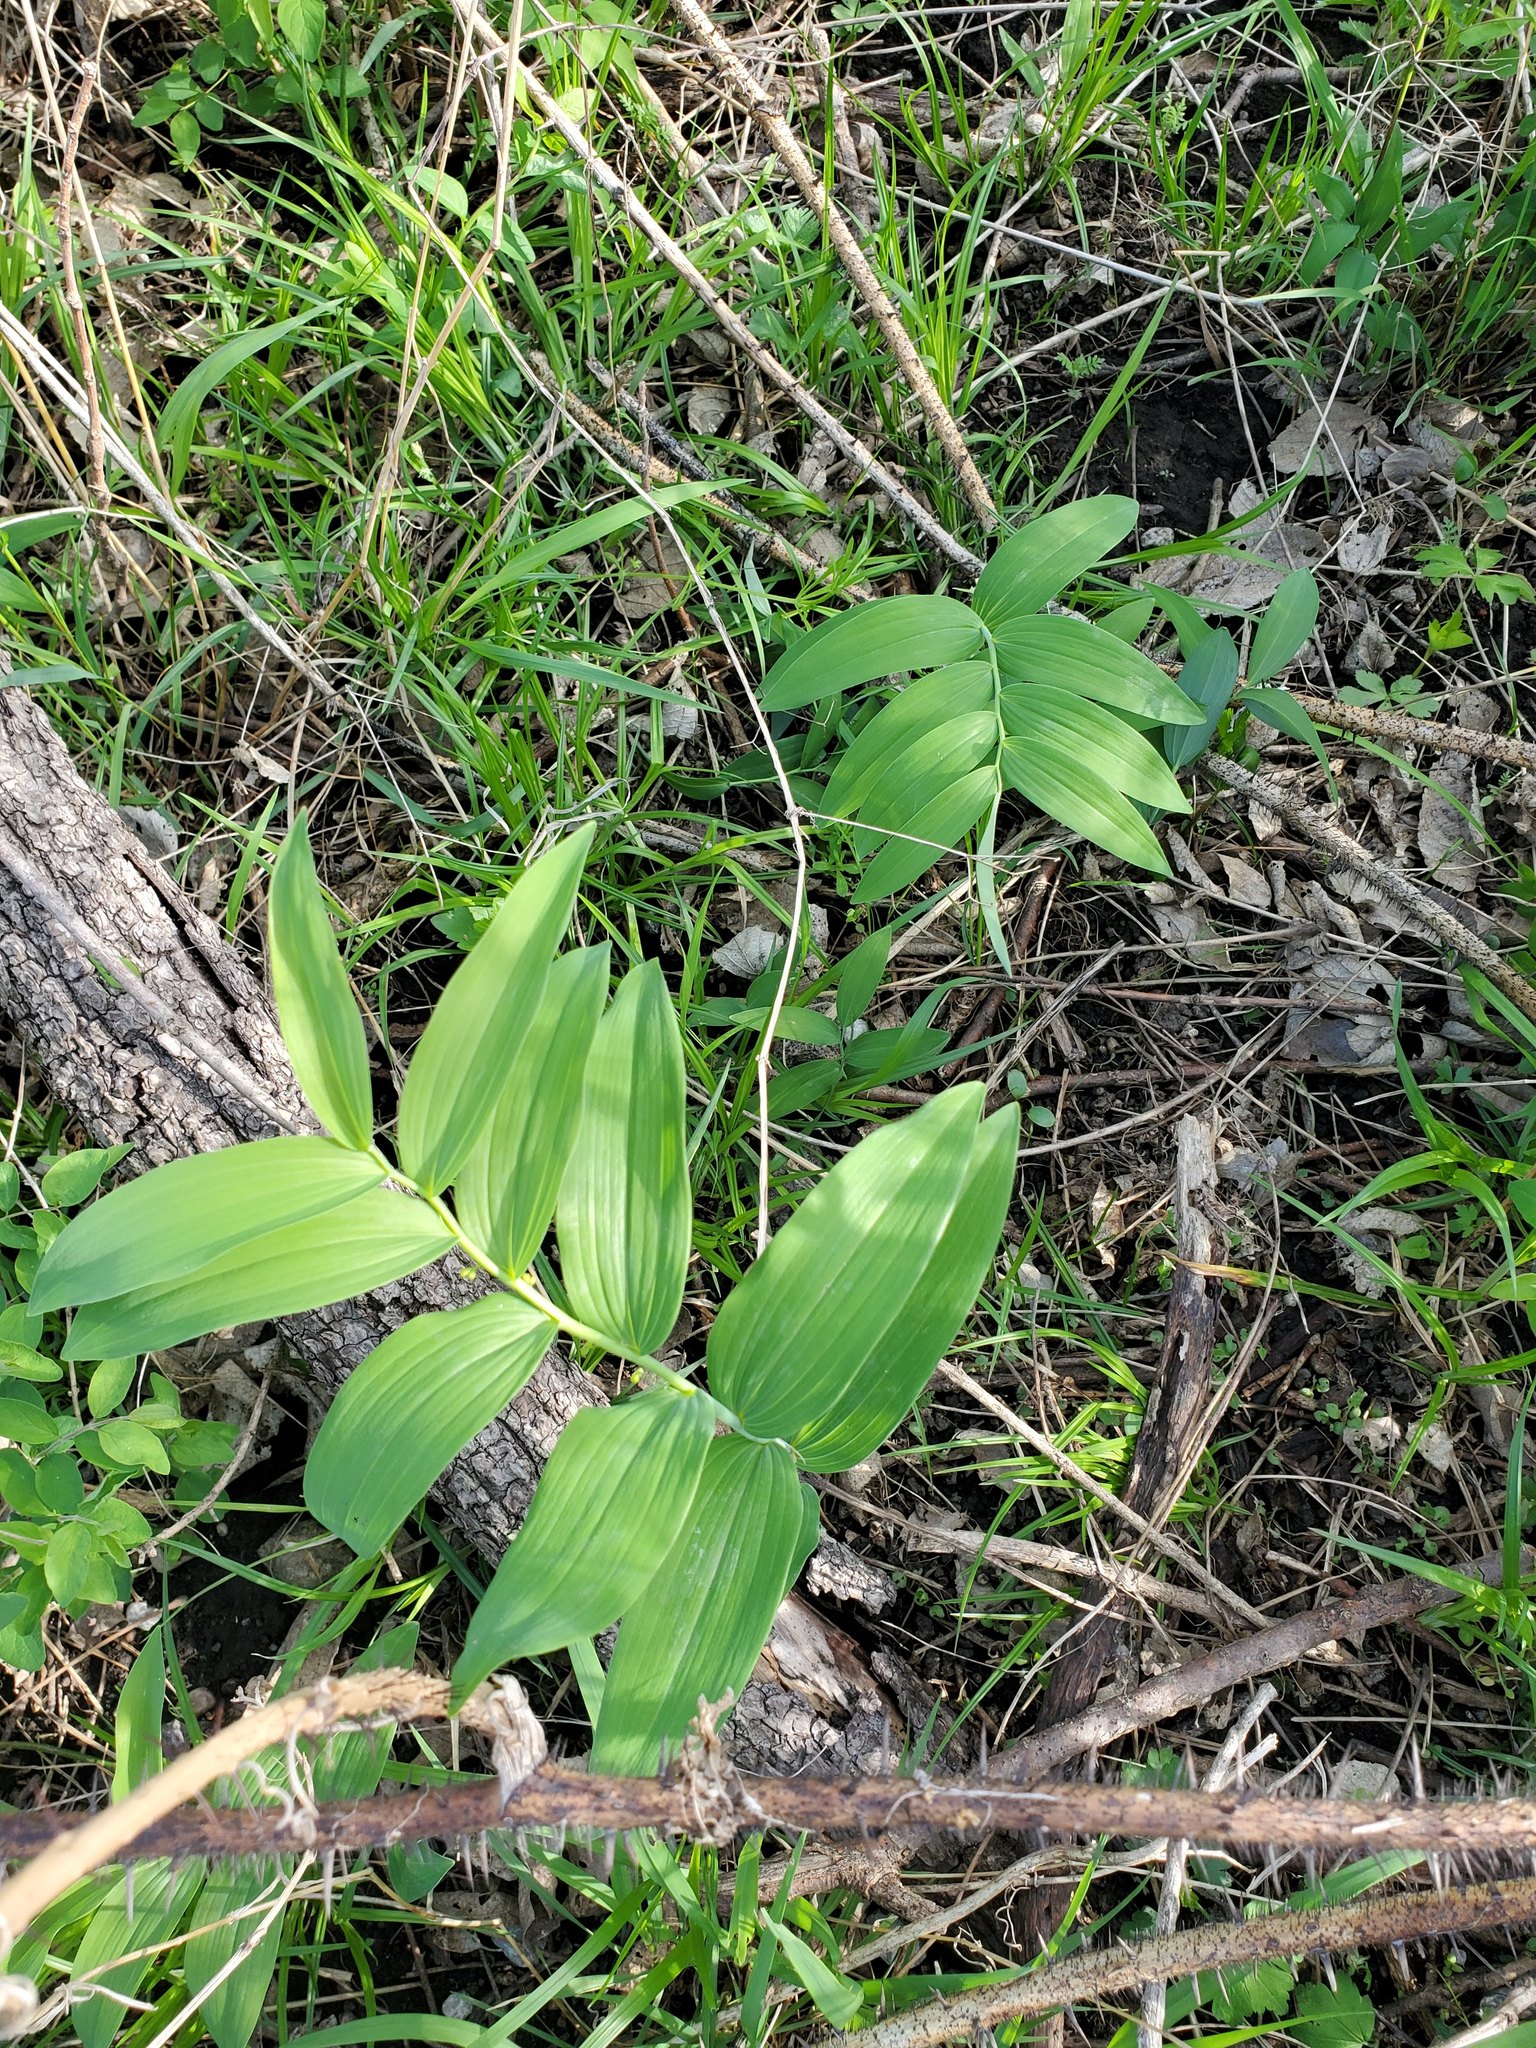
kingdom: Plantae
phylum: Tracheophyta
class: Liliopsida
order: Asparagales
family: Asparagaceae
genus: Polygonatum
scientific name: Polygonatum biflorum
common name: American solomon's-seal
